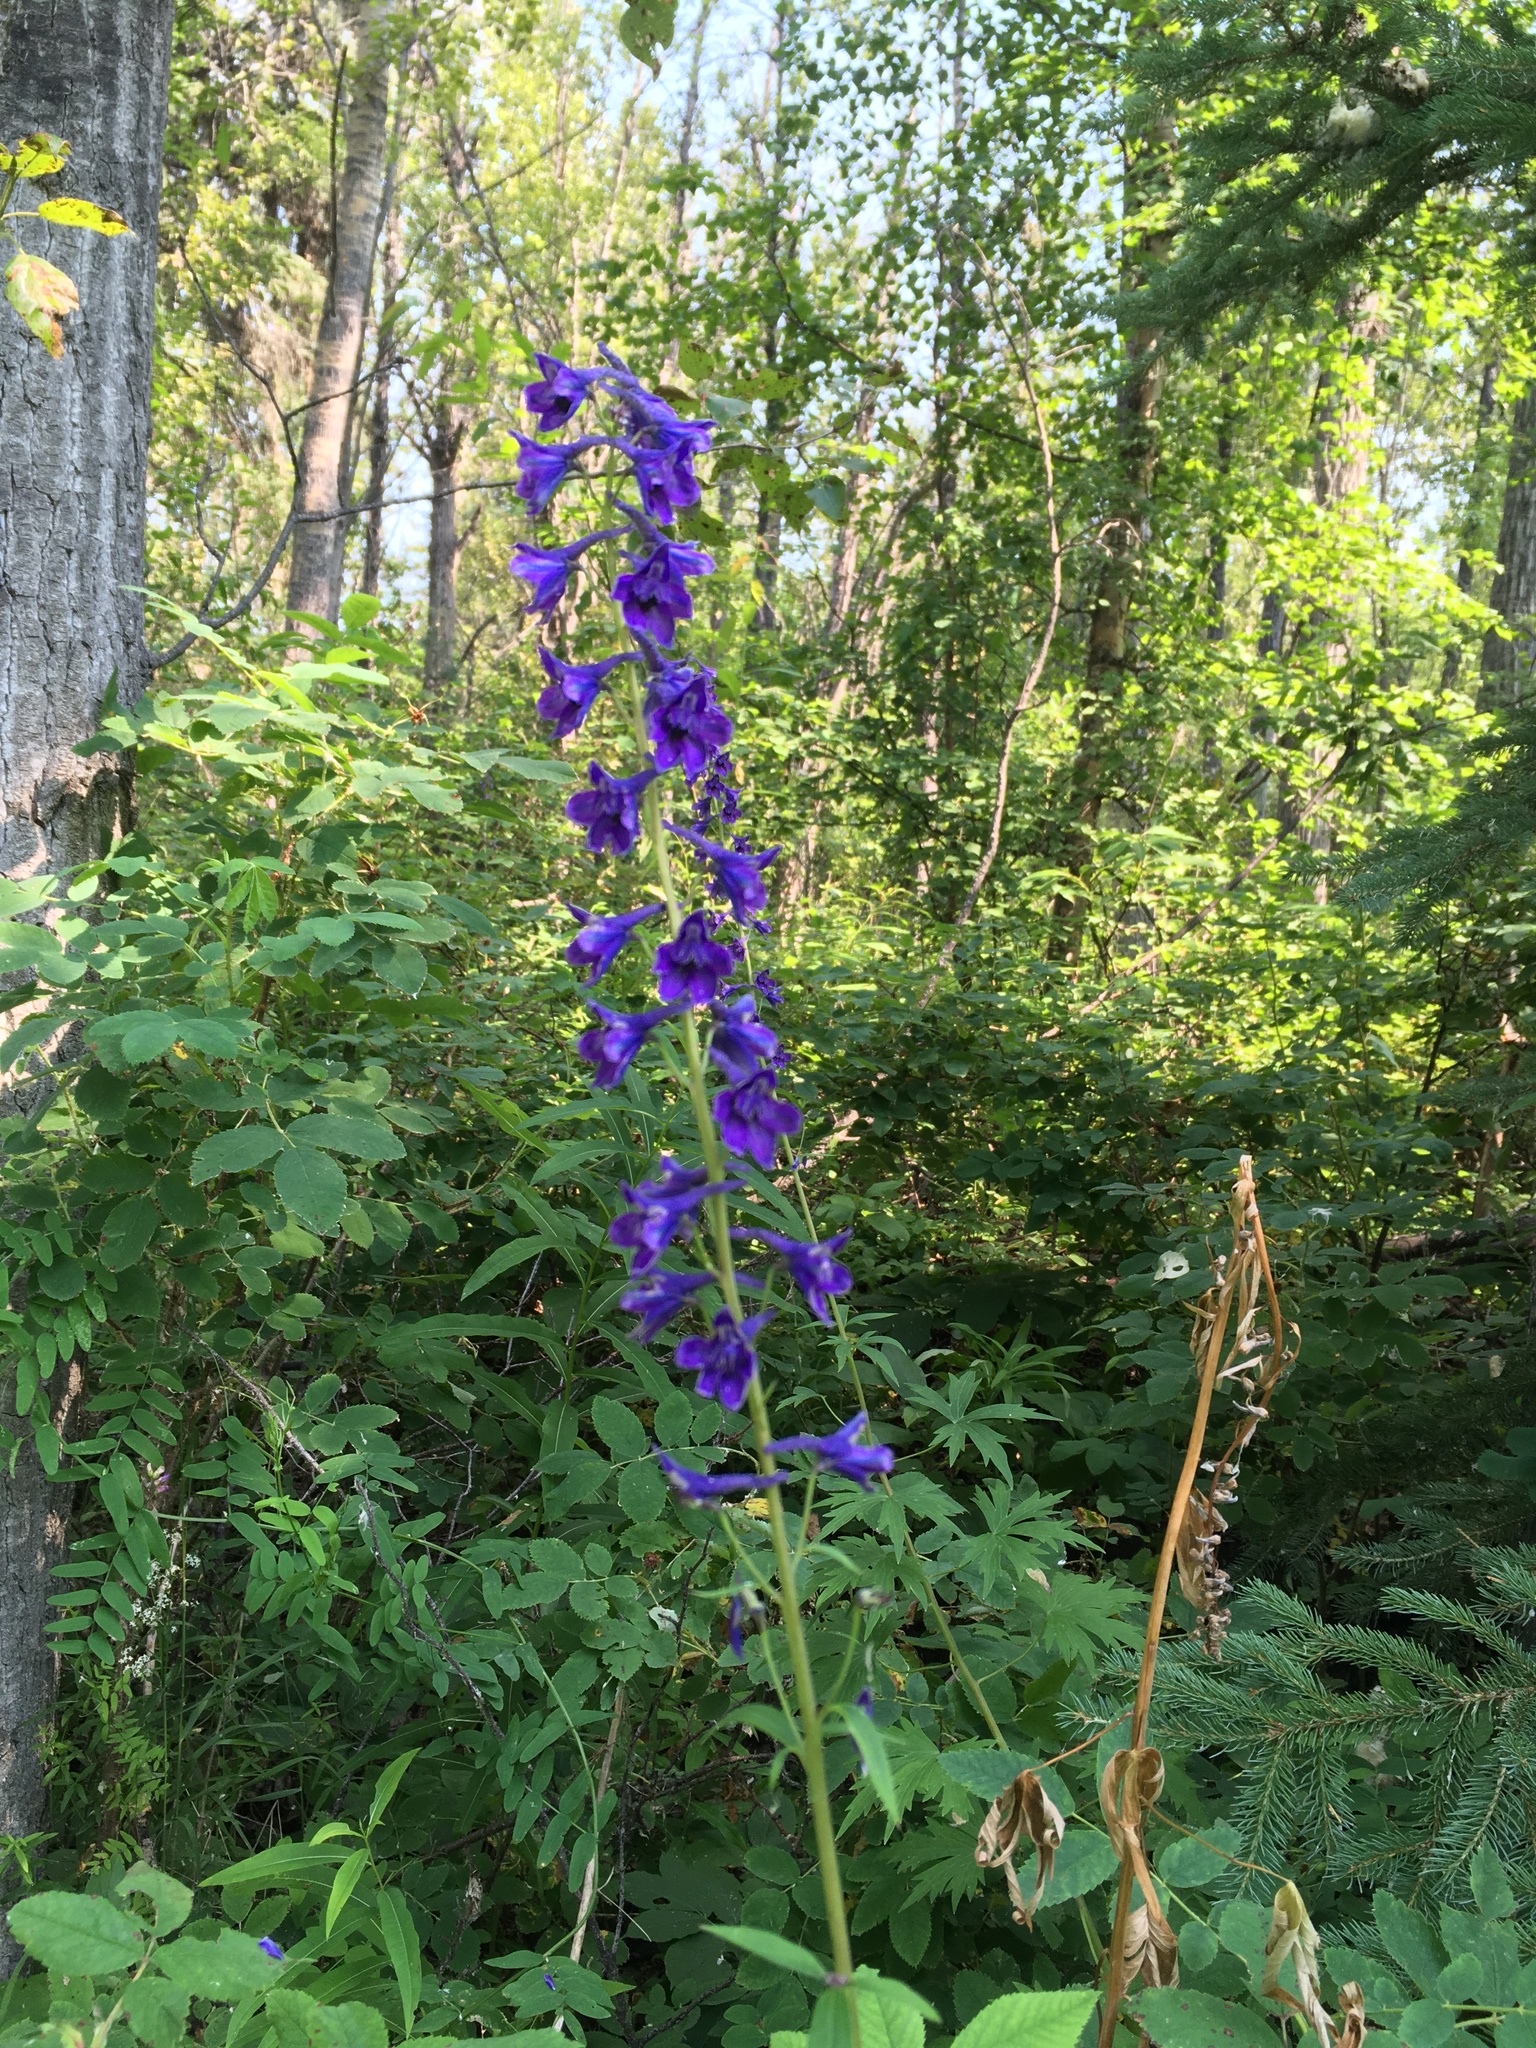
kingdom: Plantae
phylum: Tracheophyta
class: Magnoliopsida
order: Ranunculales
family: Ranunculaceae
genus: Delphinium
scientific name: Delphinium glaucum
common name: Brown's larkspur
